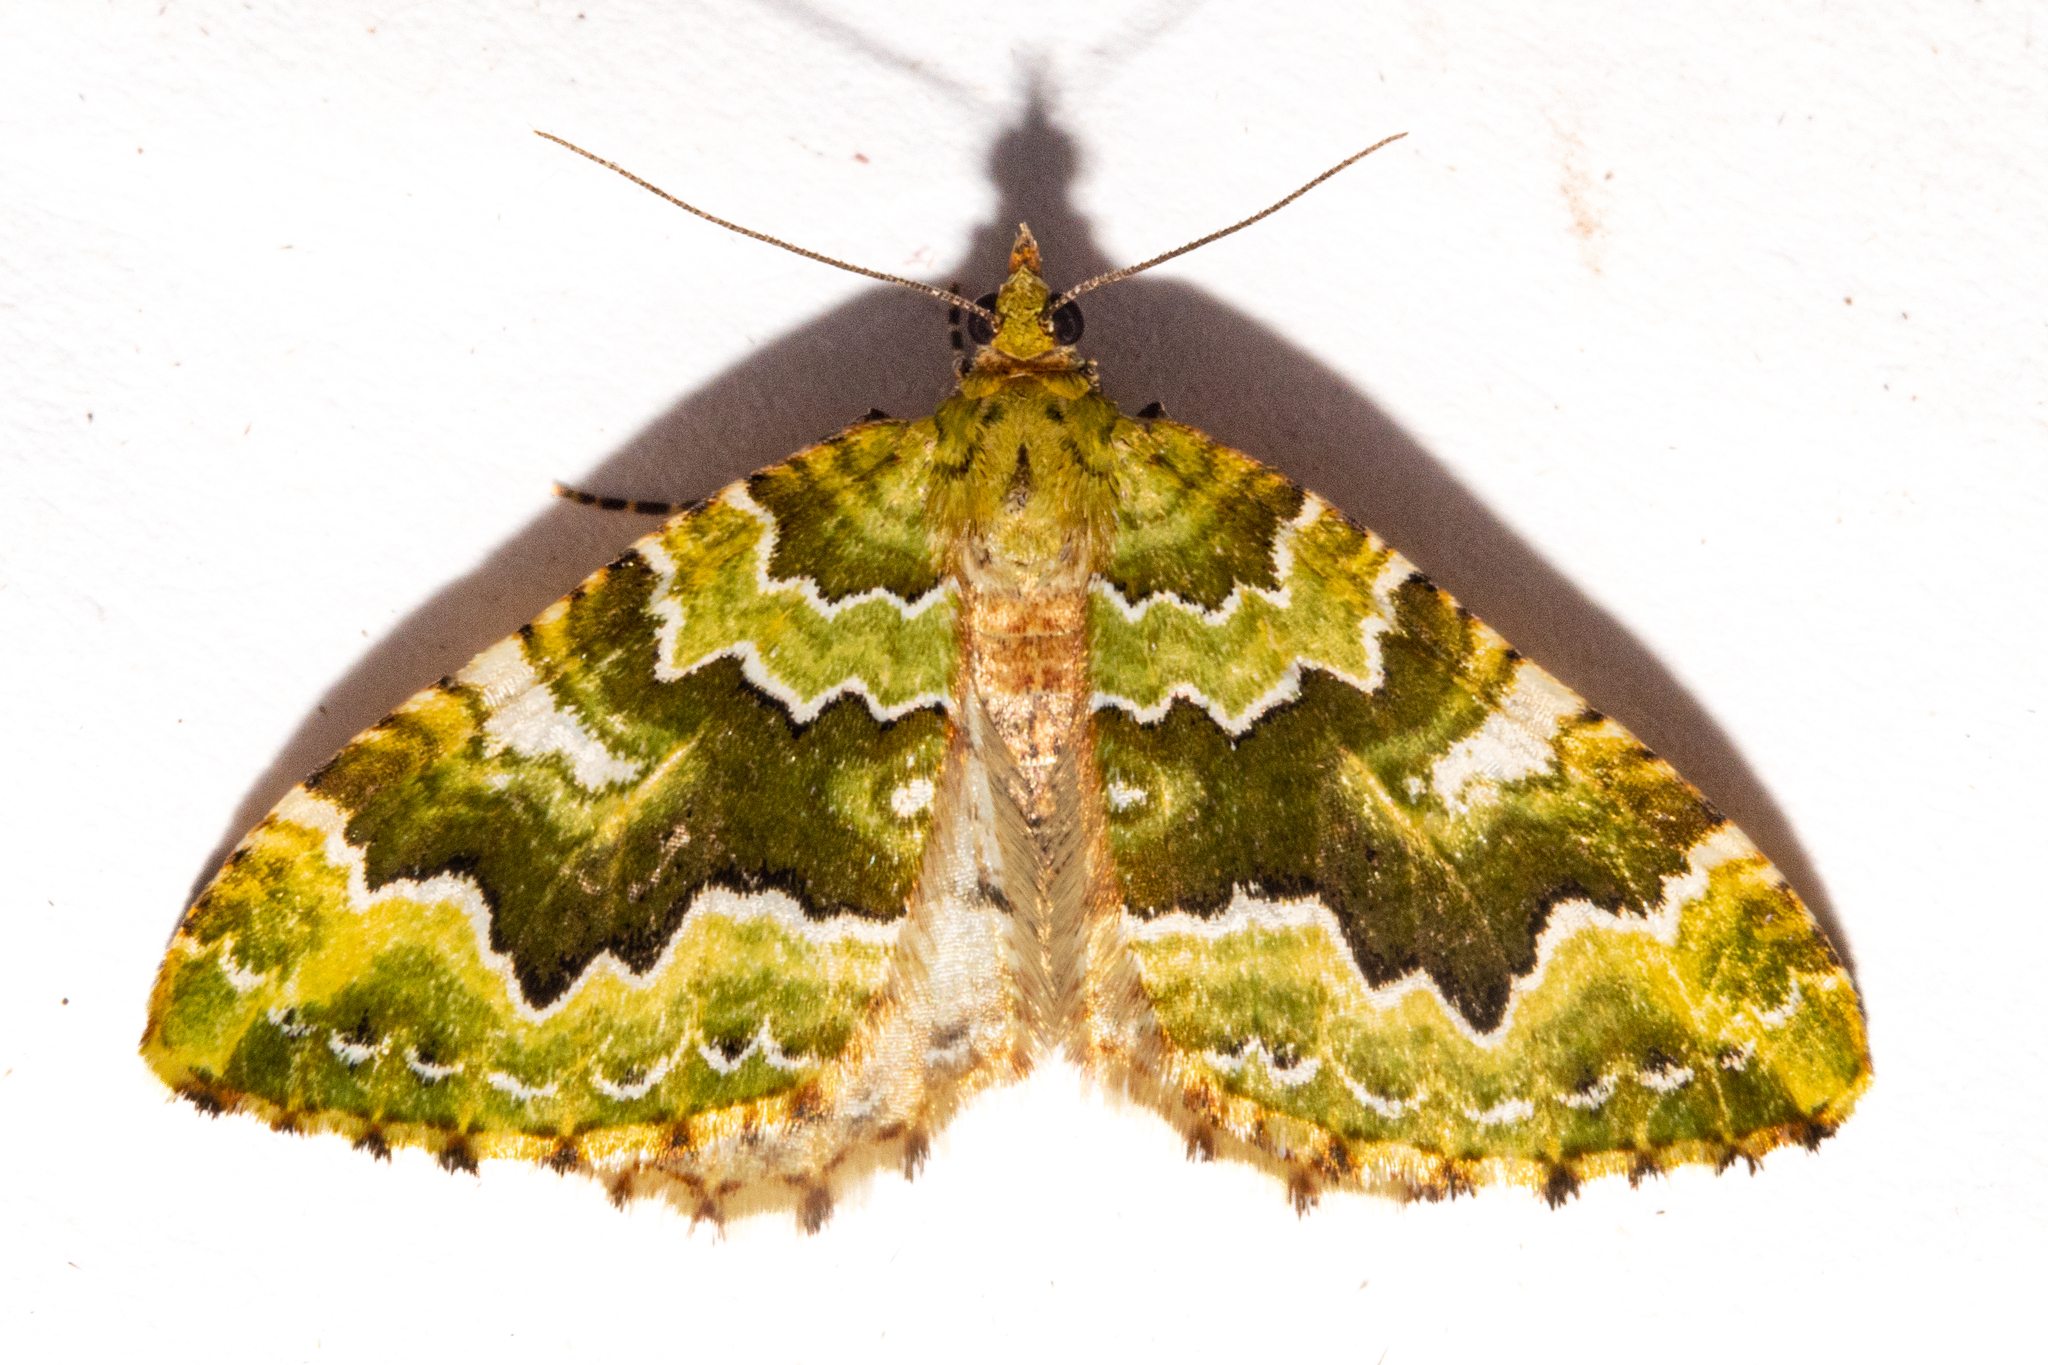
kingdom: Animalia
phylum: Arthropoda
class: Insecta
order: Lepidoptera
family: Geometridae
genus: Asaphodes
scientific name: Asaphodes philpotti
